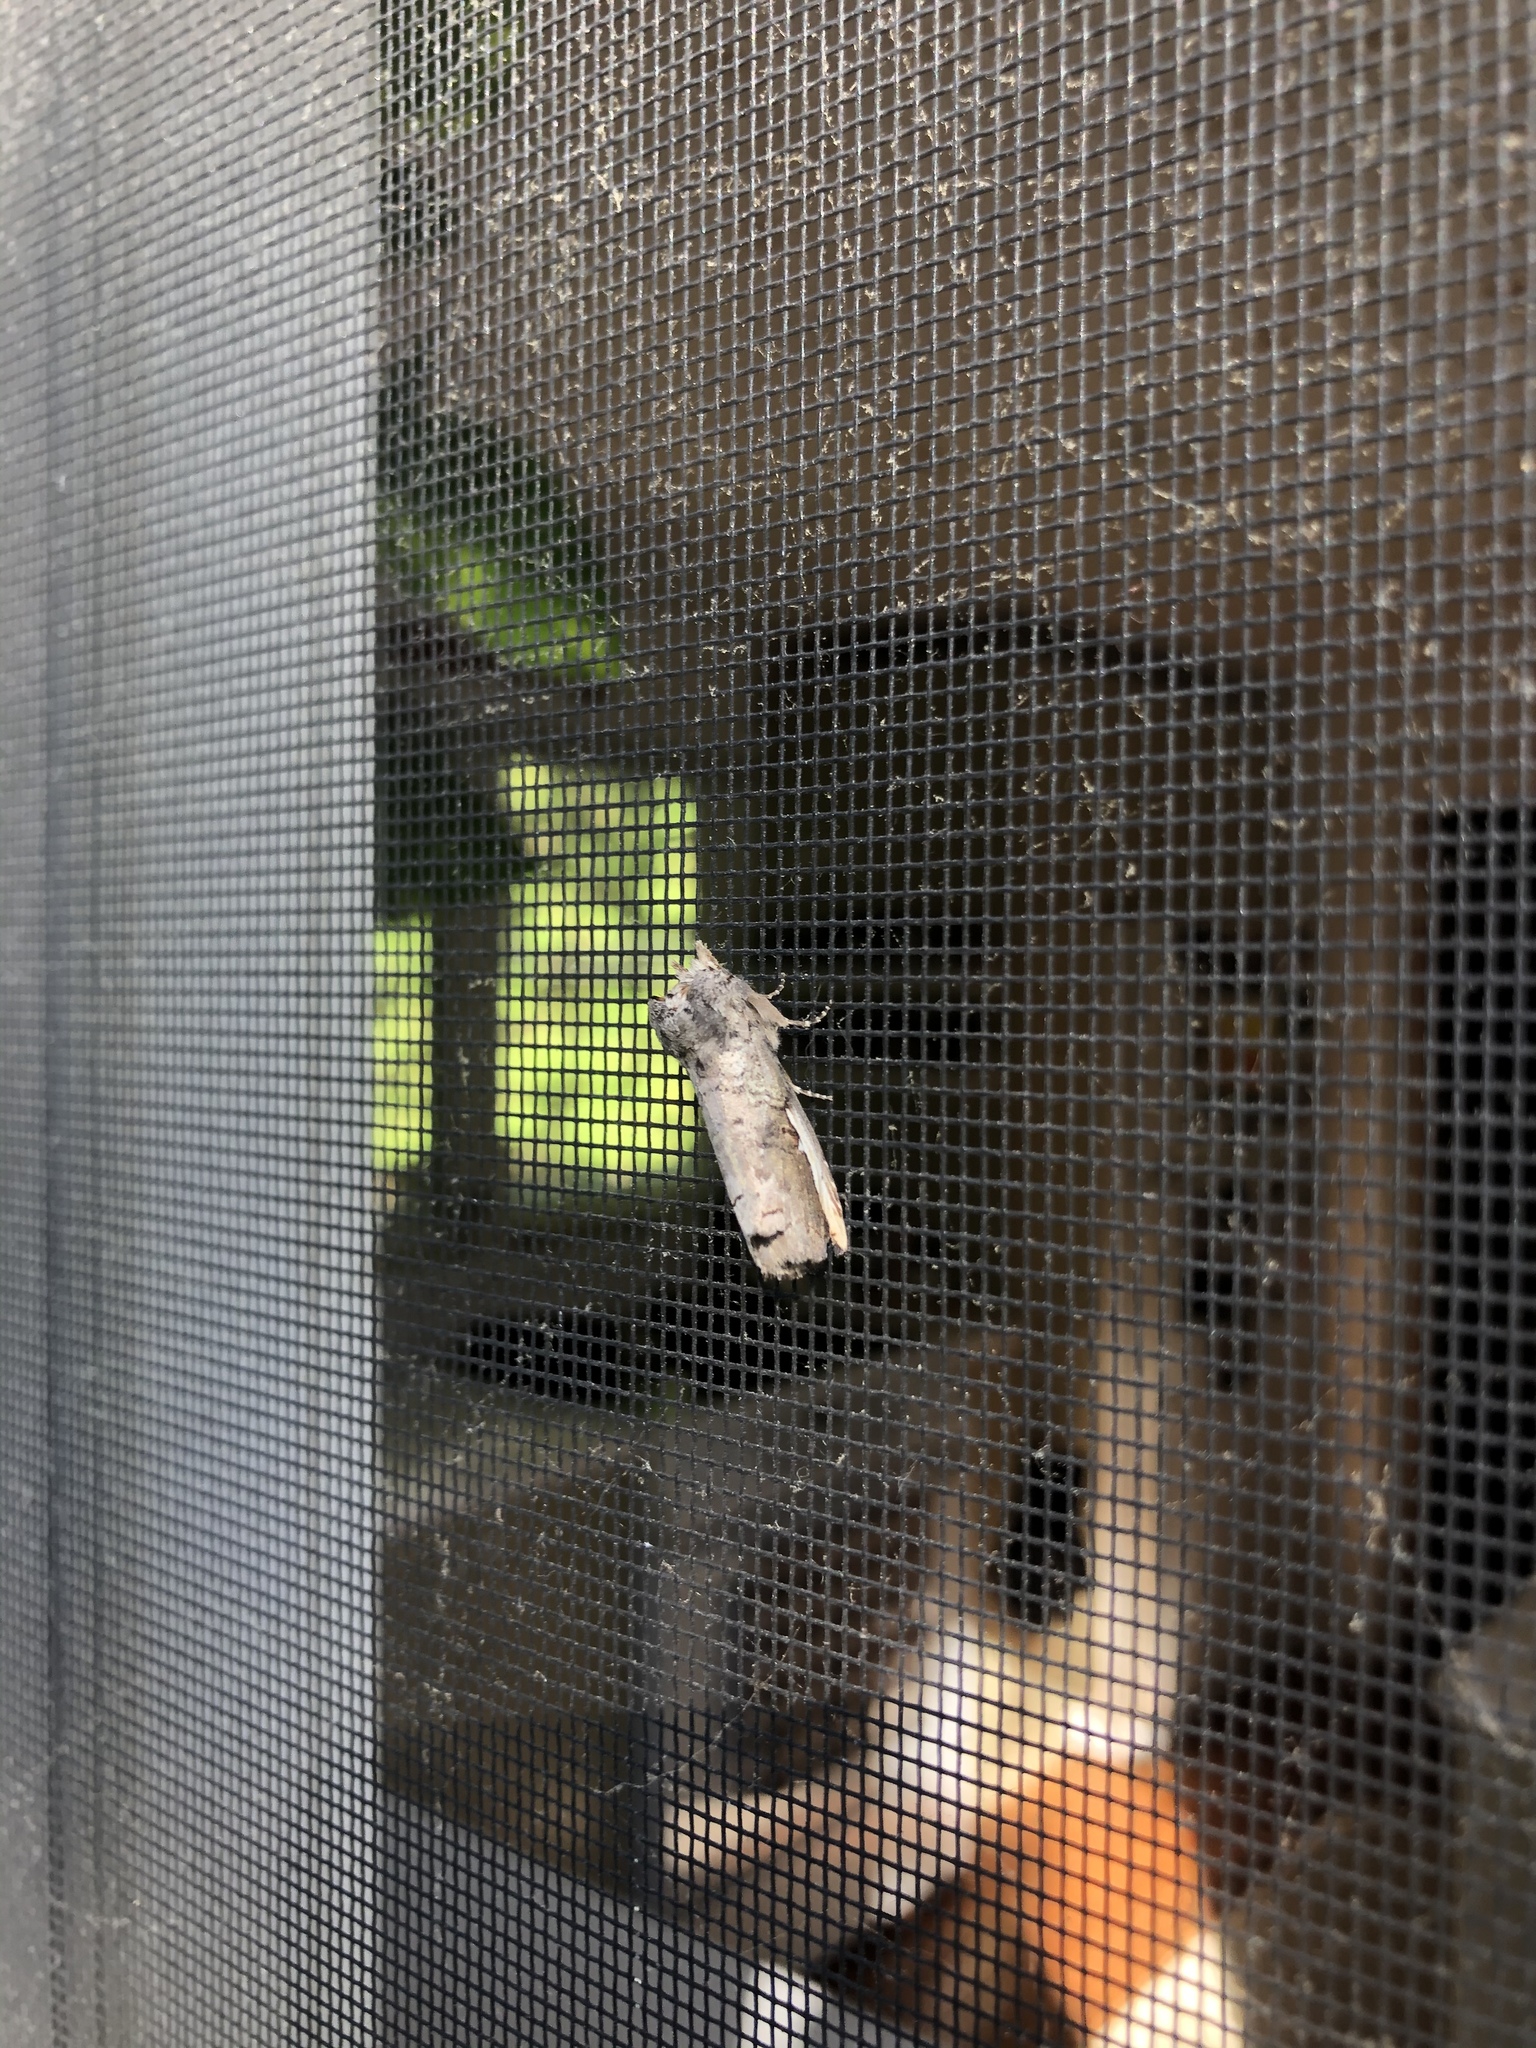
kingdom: Animalia
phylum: Arthropoda
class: Insecta
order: Lepidoptera
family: Notodontidae
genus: Symmerista
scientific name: Symmerista albifrons
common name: White-headed prominent
